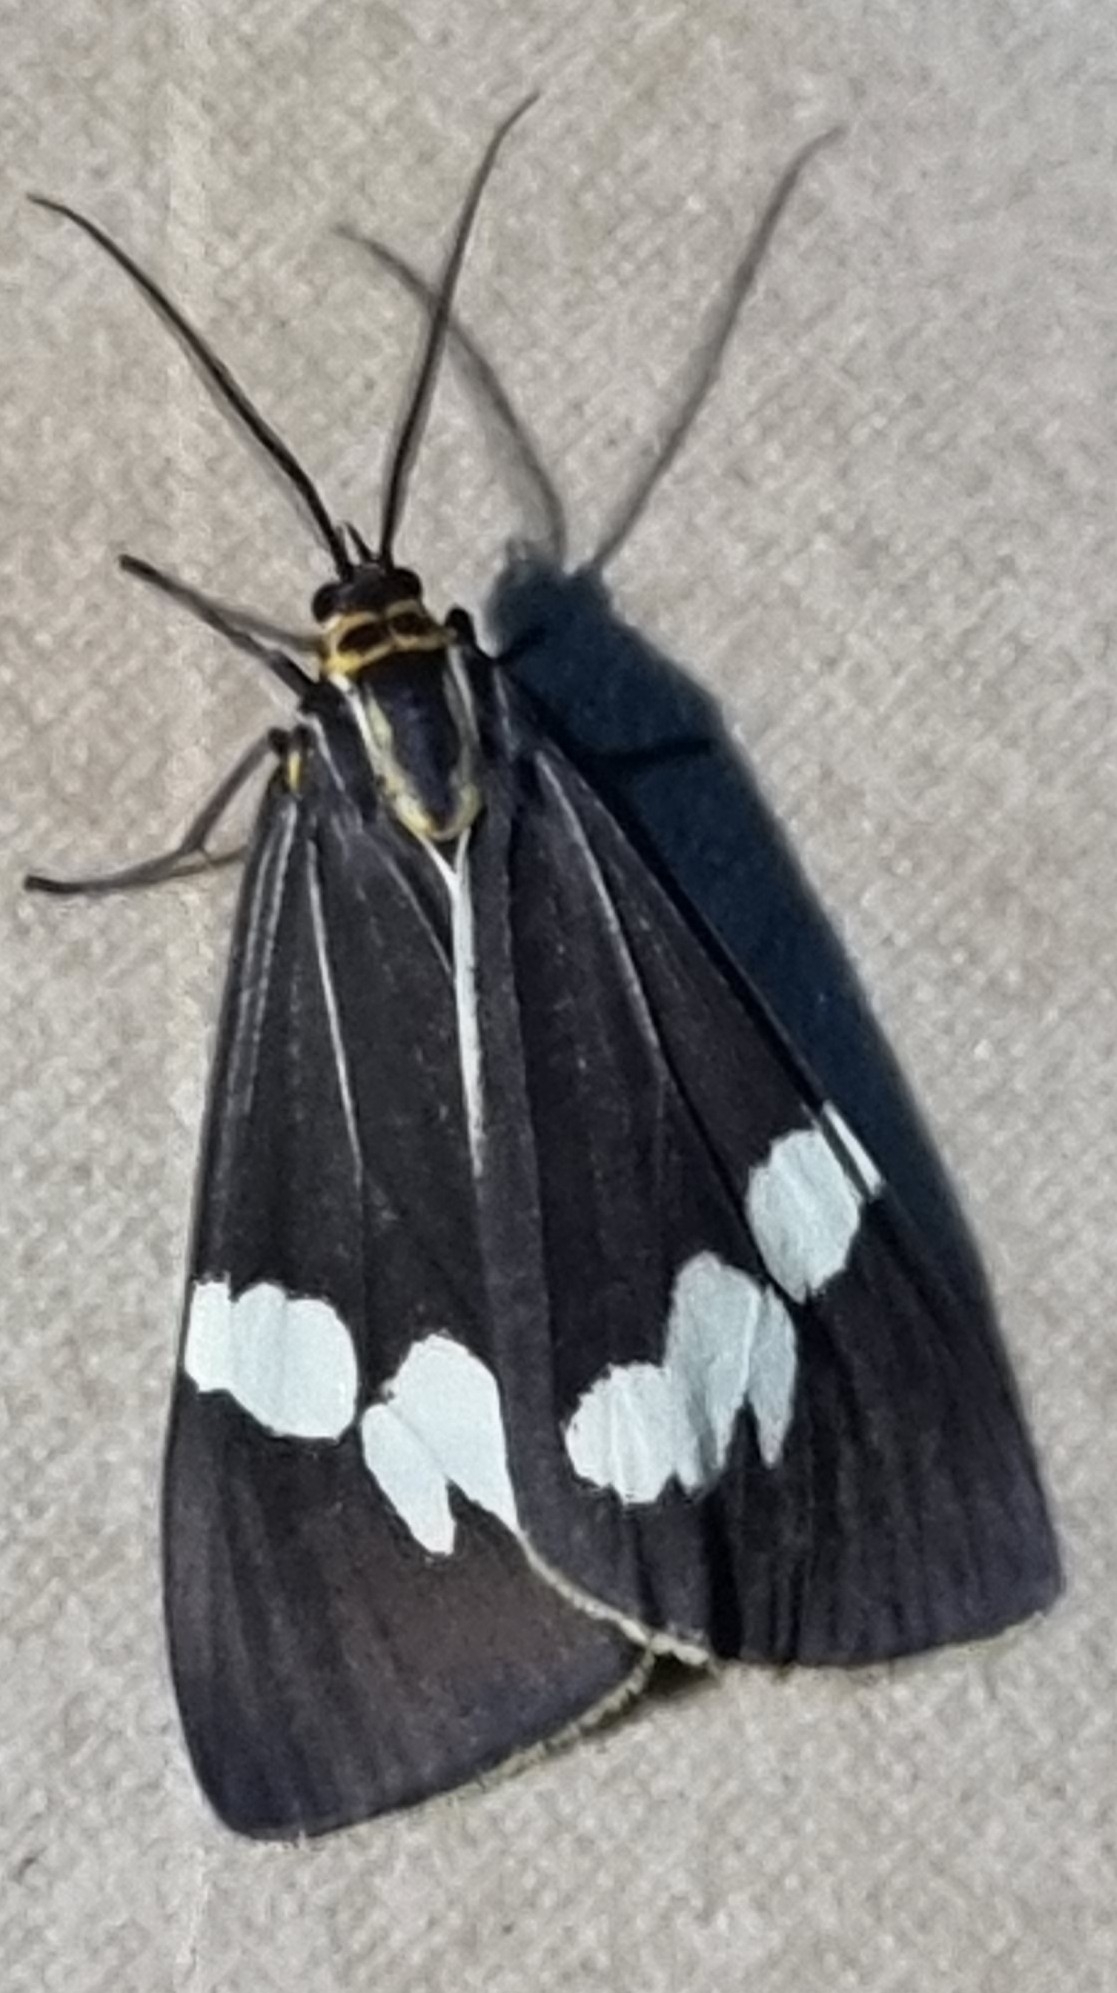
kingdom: Animalia
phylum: Arthropoda
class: Insecta
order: Lepidoptera
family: Erebidae
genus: Nyctemera
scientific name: Nyctemera amicus
